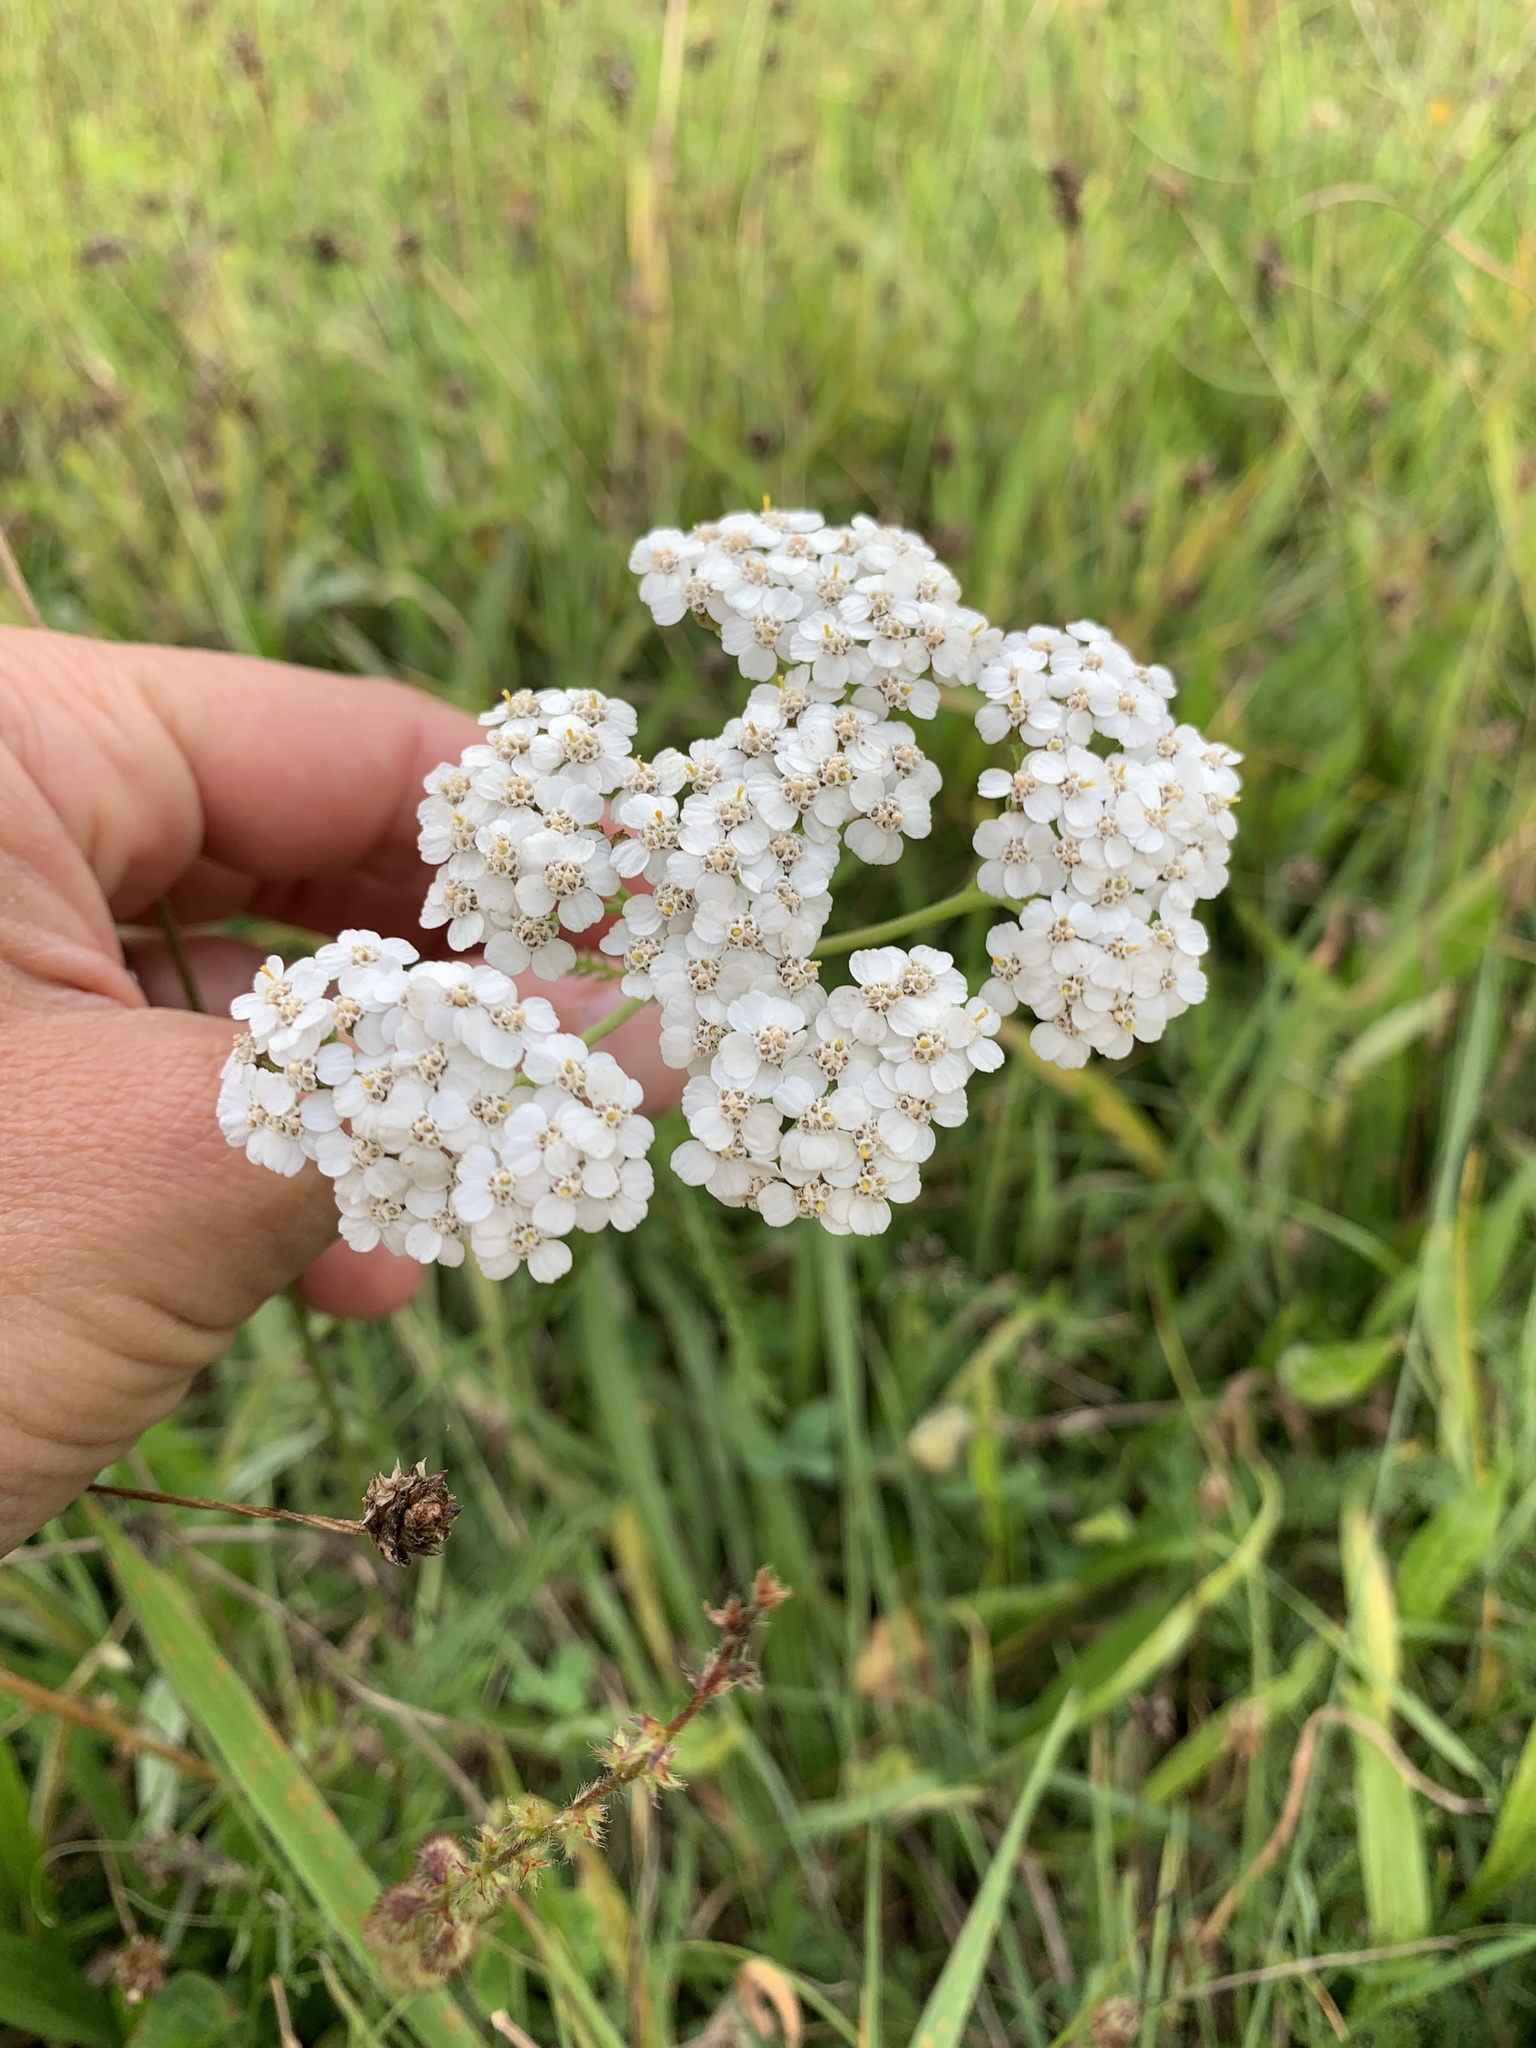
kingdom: Plantae
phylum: Tracheophyta
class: Magnoliopsida
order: Asterales
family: Asteraceae
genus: Achillea
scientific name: Achillea millefolium
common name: Yarrow
